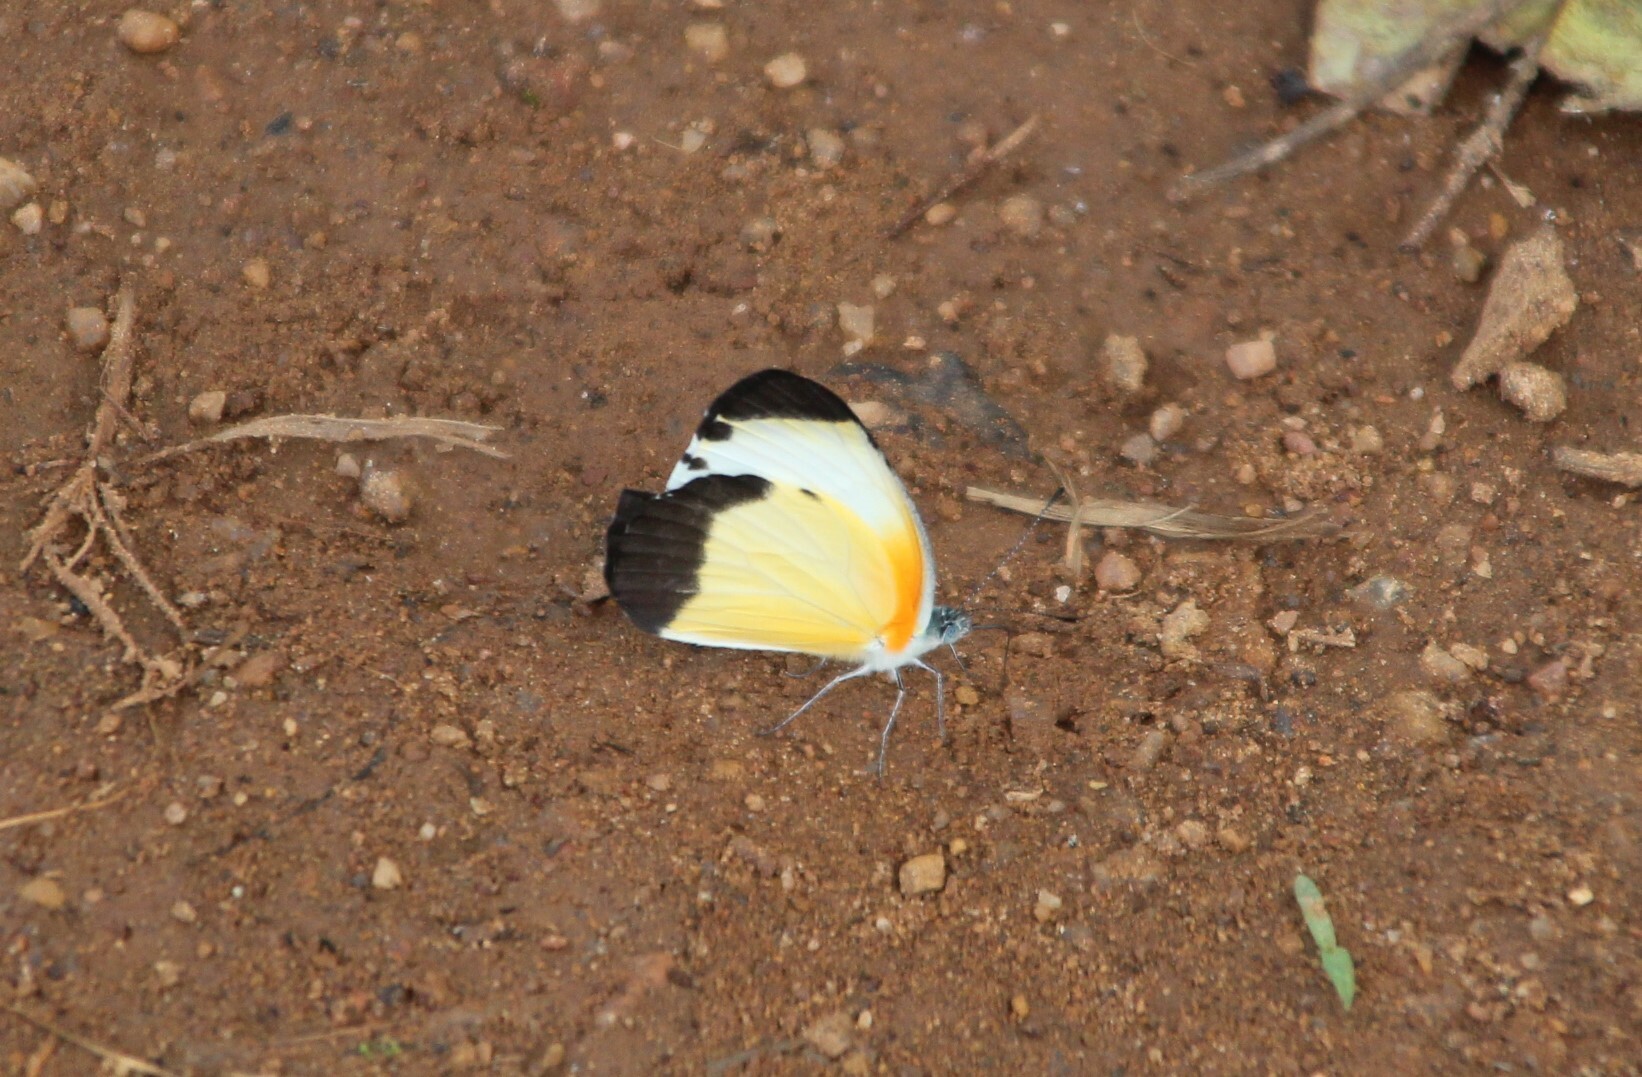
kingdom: Animalia
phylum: Arthropoda
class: Insecta
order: Lepidoptera
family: Pieridae
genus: Mylothris
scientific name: Mylothris chloris
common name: Western dotted border
